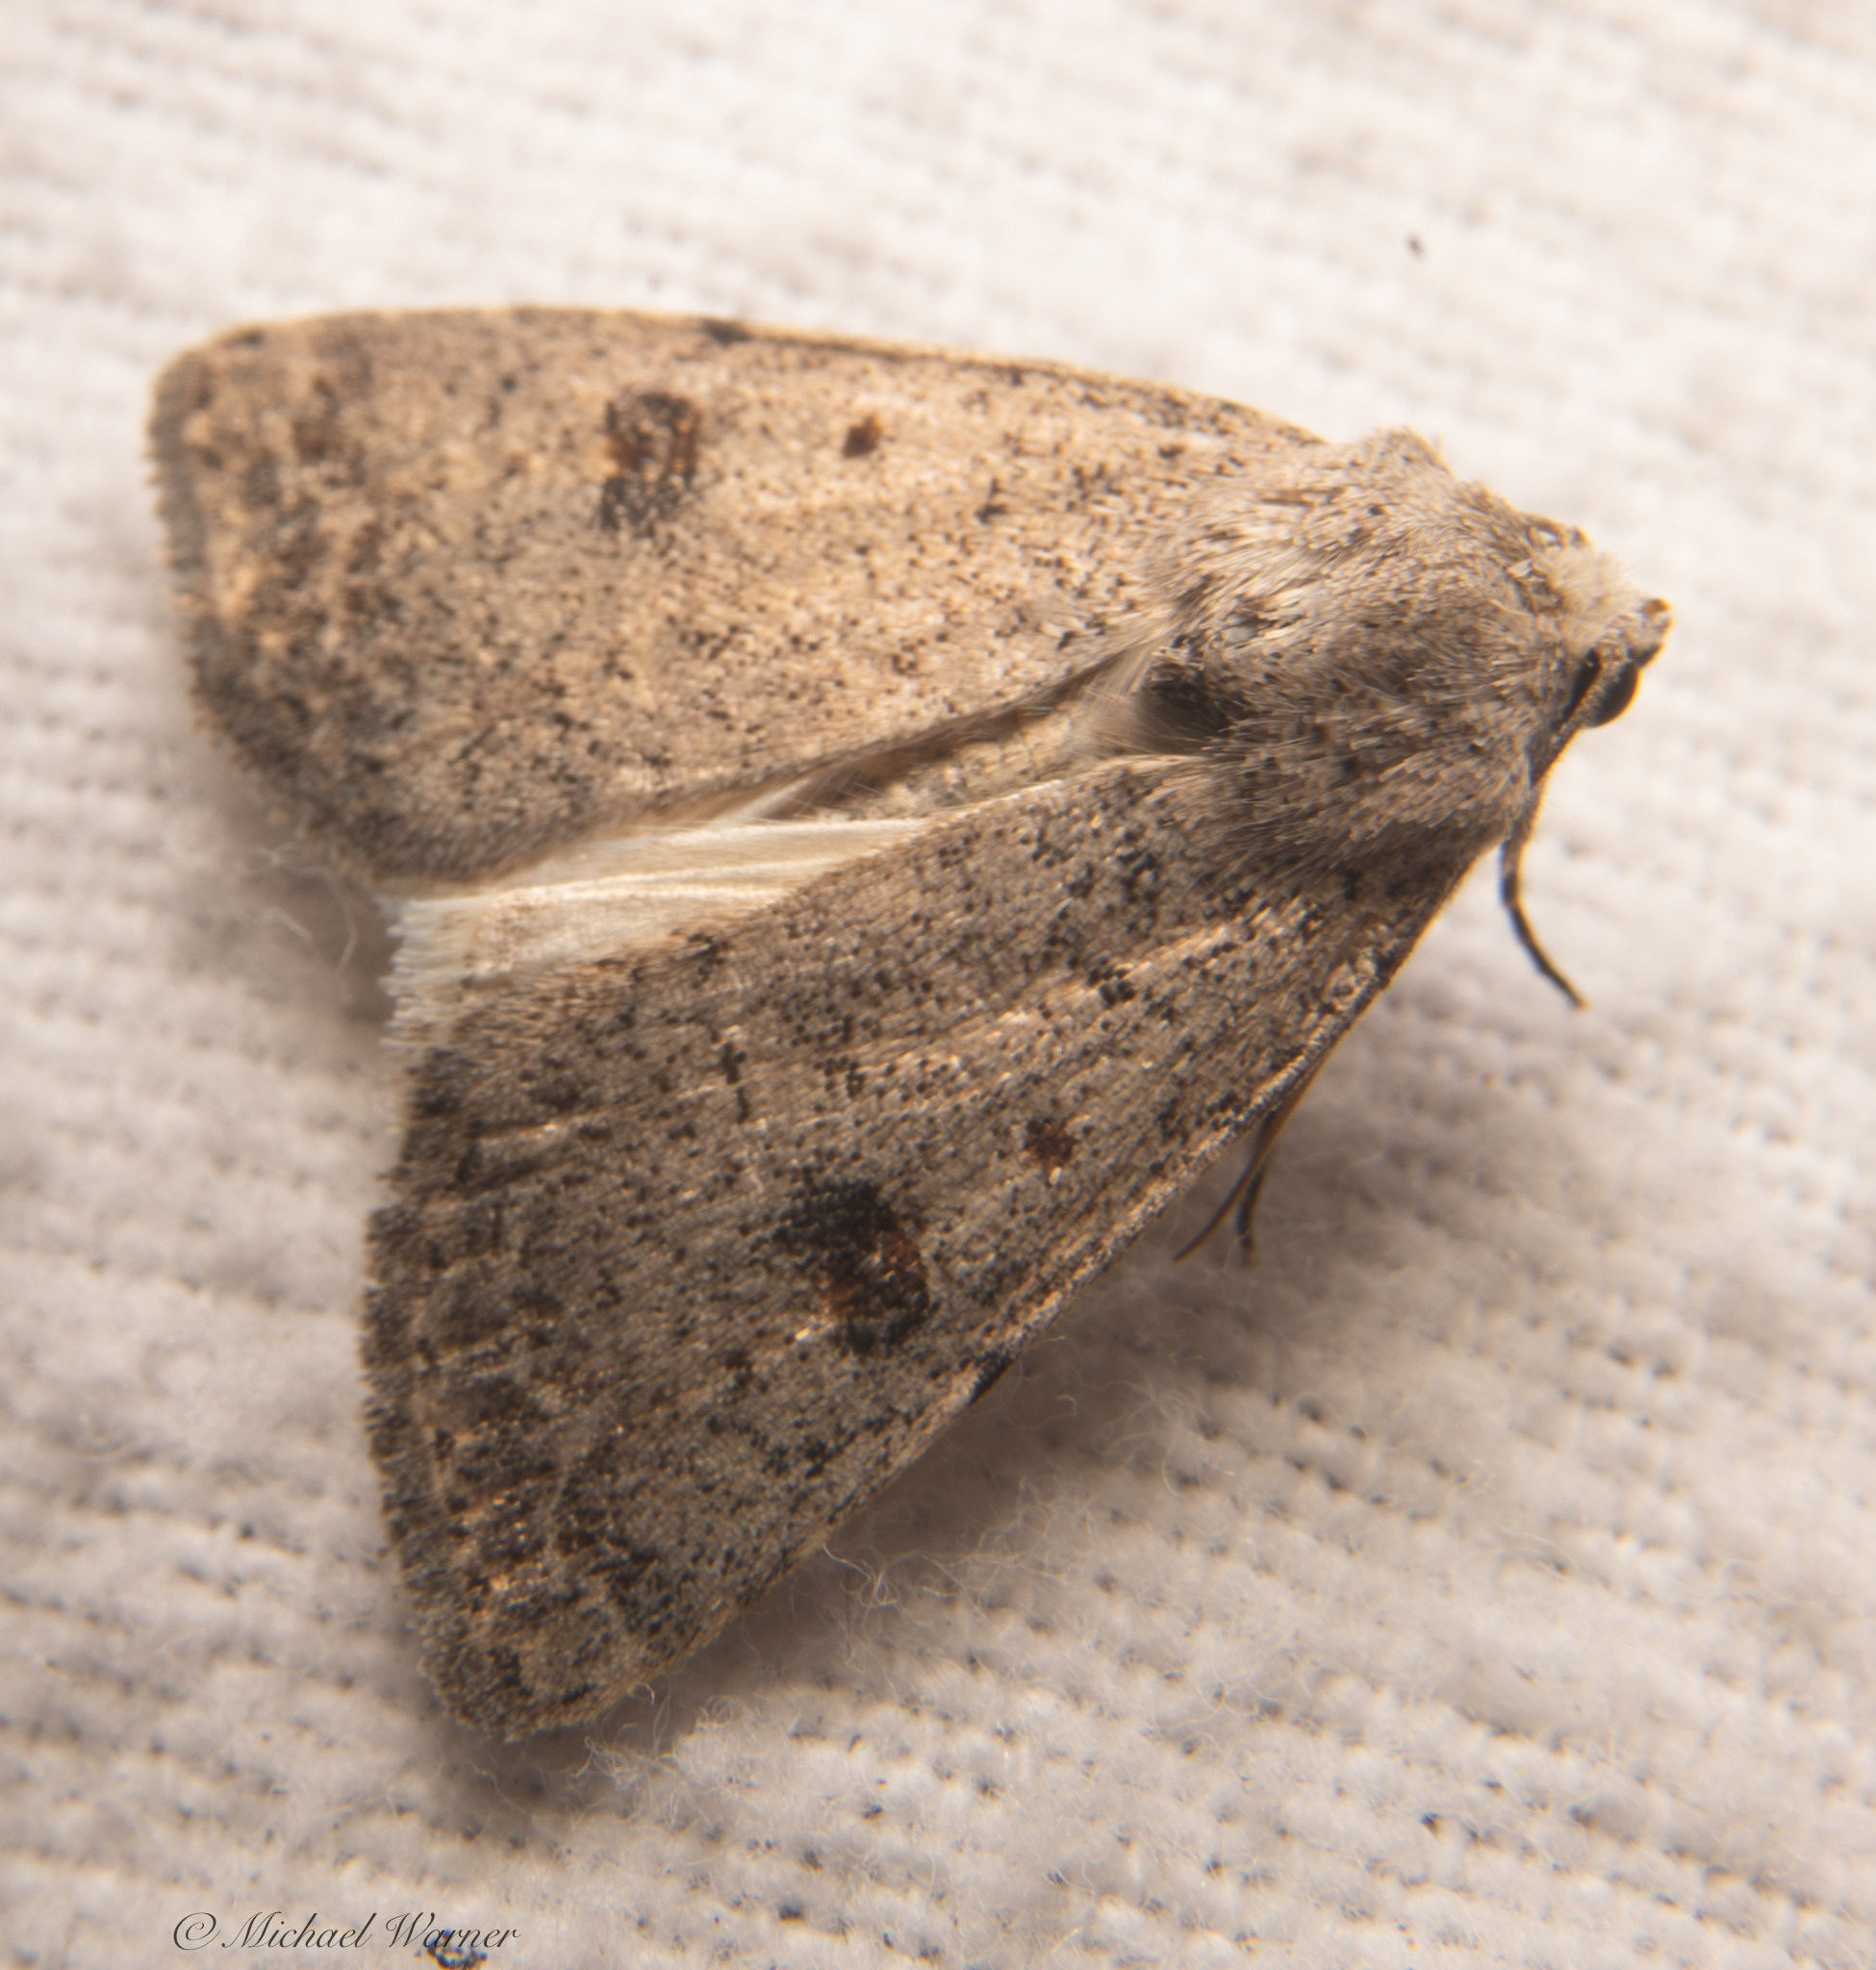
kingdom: Animalia
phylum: Arthropoda
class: Insecta
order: Lepidoptera
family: Noctuidae
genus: Caradrina
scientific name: Caradrina montana
